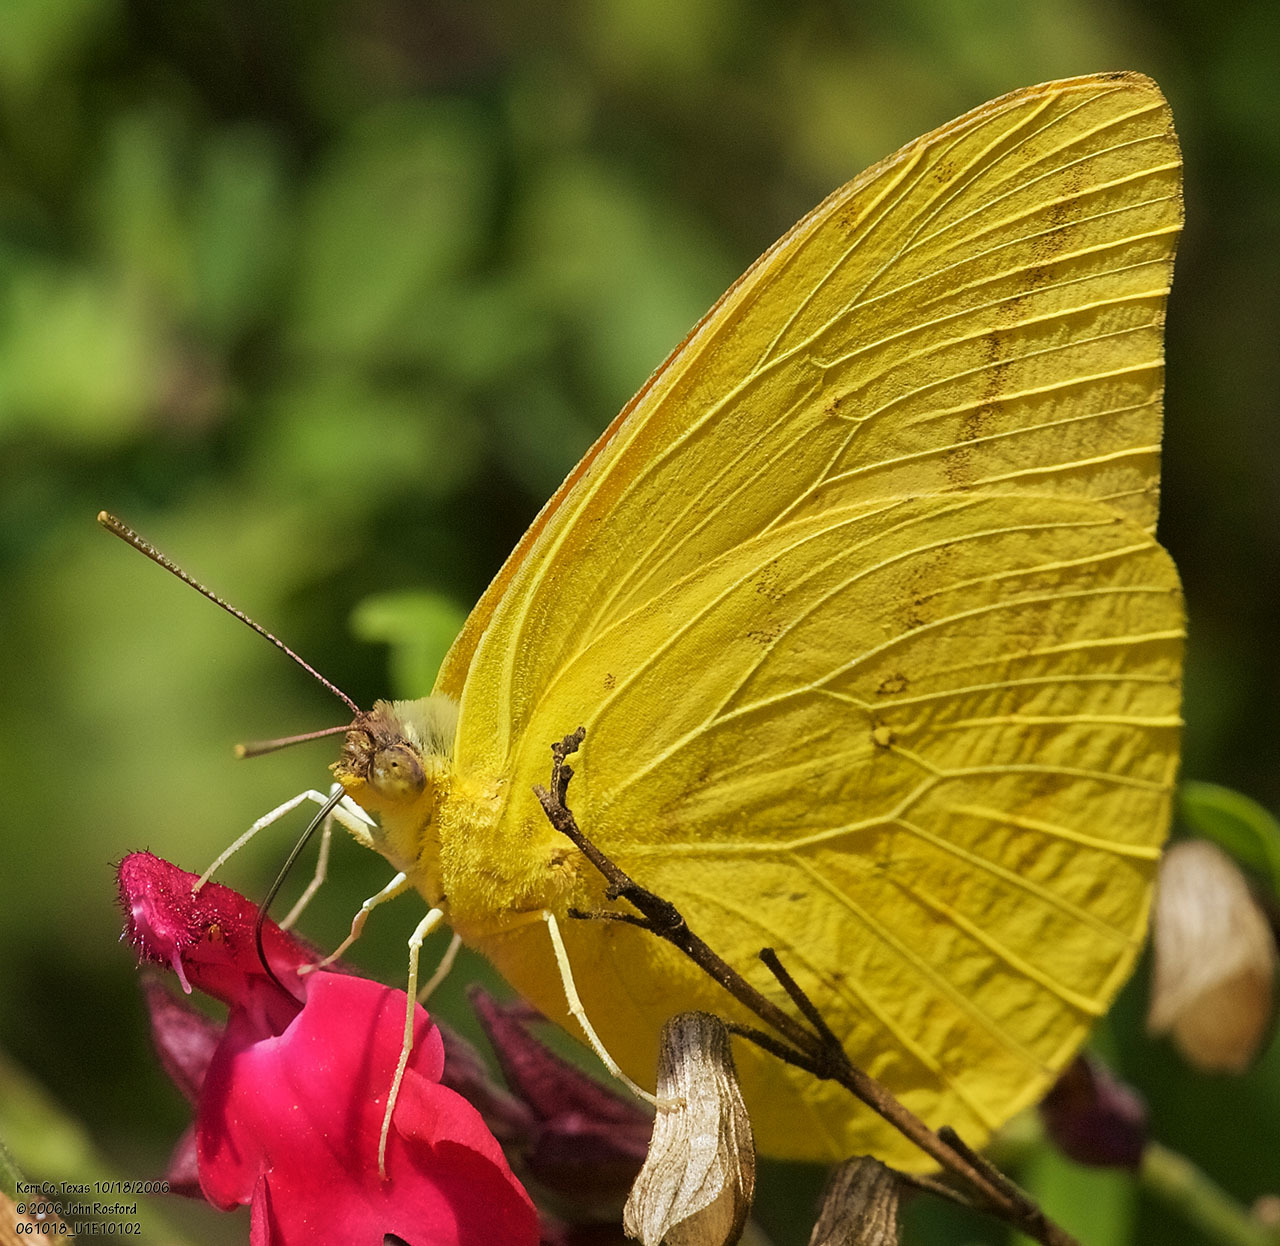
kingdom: Animalia
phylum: Arthropoda
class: Insecta
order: Lepidoptera
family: Pieridae
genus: Phoebis
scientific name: Phoebis agarithe
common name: Large orange sulphur
